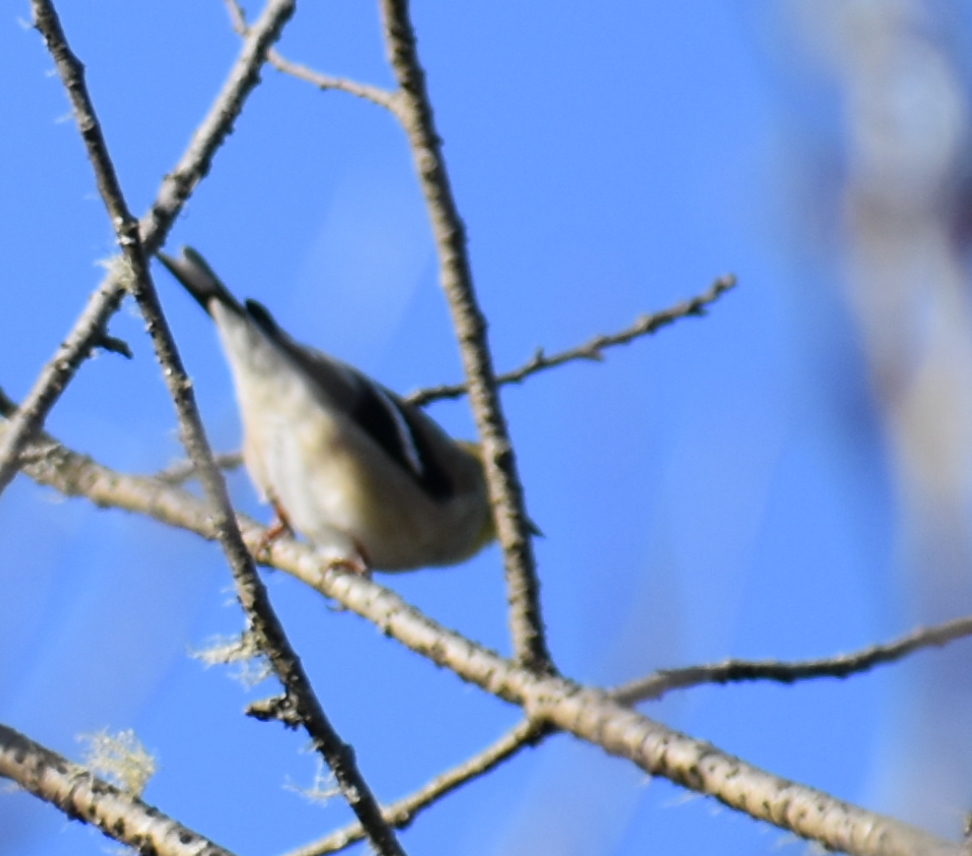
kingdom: Animalia
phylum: Chordata
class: Aves
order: Passeriformes
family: Fringillidae
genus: Spinus
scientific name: Spinus tristis
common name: American goldfinch
